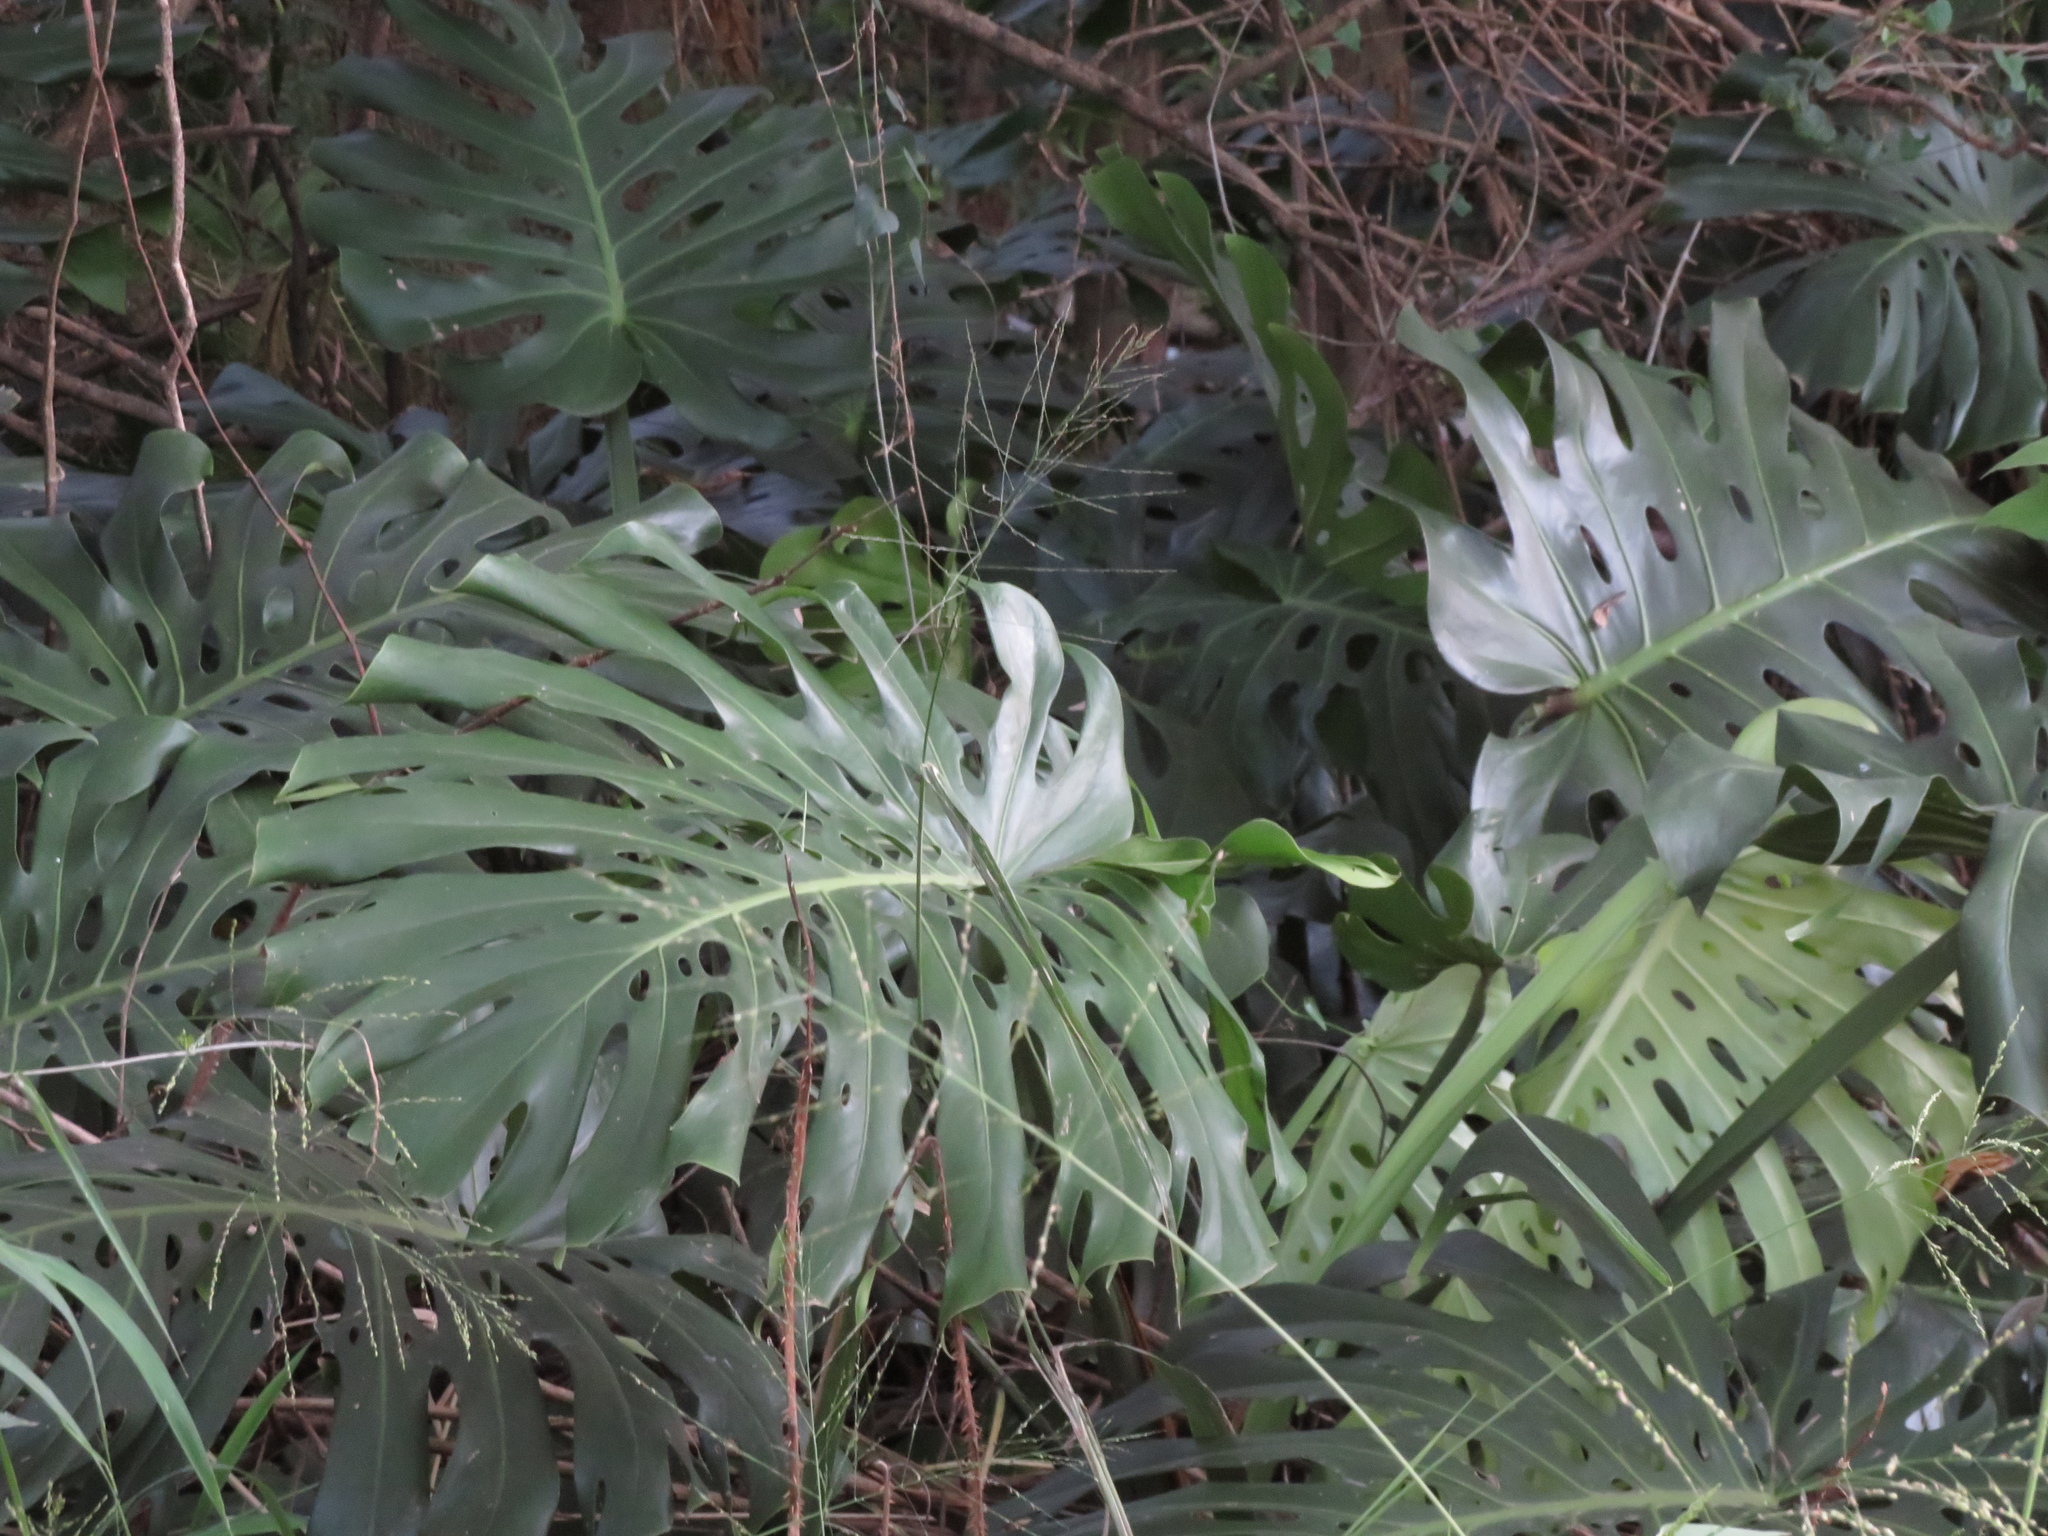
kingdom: Plantae
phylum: Tracheophyta
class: Liliopsida
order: Alismatales
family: Araceae
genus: Monstera
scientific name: Monstera deliciosa
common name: Cut-leaf-philodendron
